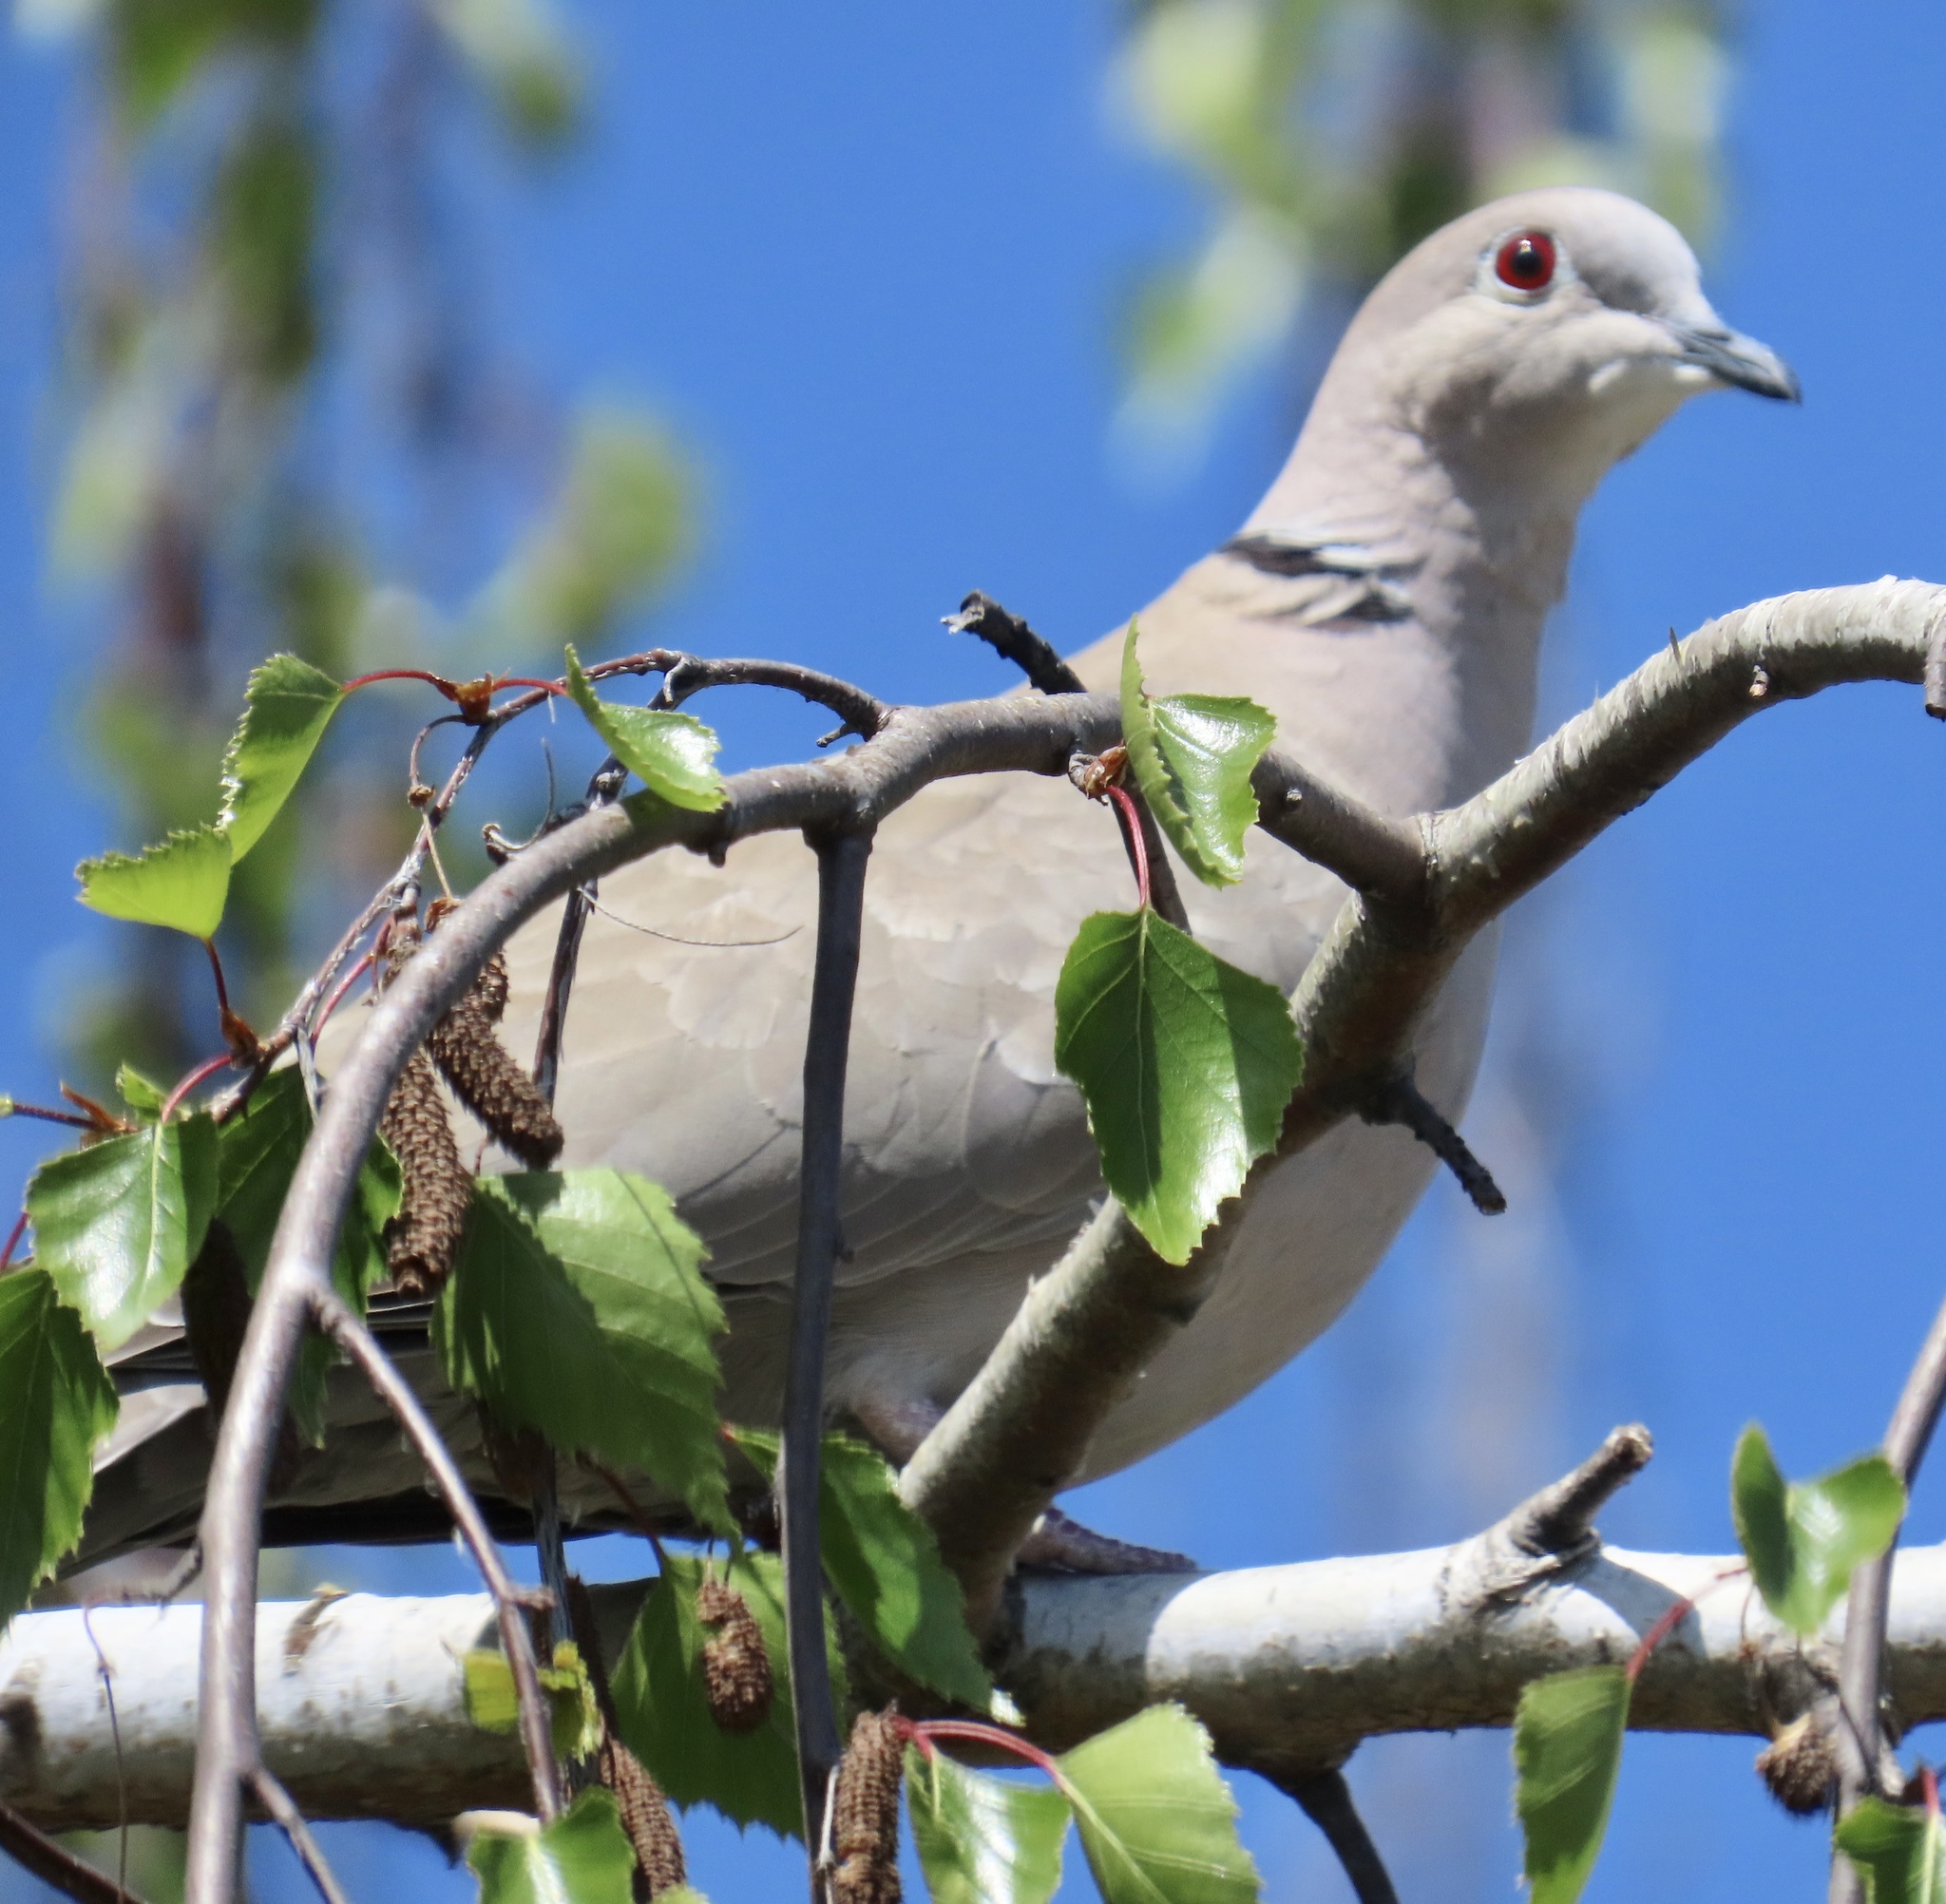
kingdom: Animalia
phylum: Chordata
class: Aves
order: Columbiformes
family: Columbidae
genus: Streptopelia
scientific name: Streptopelia decaocto
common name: Eurasian collared dove
